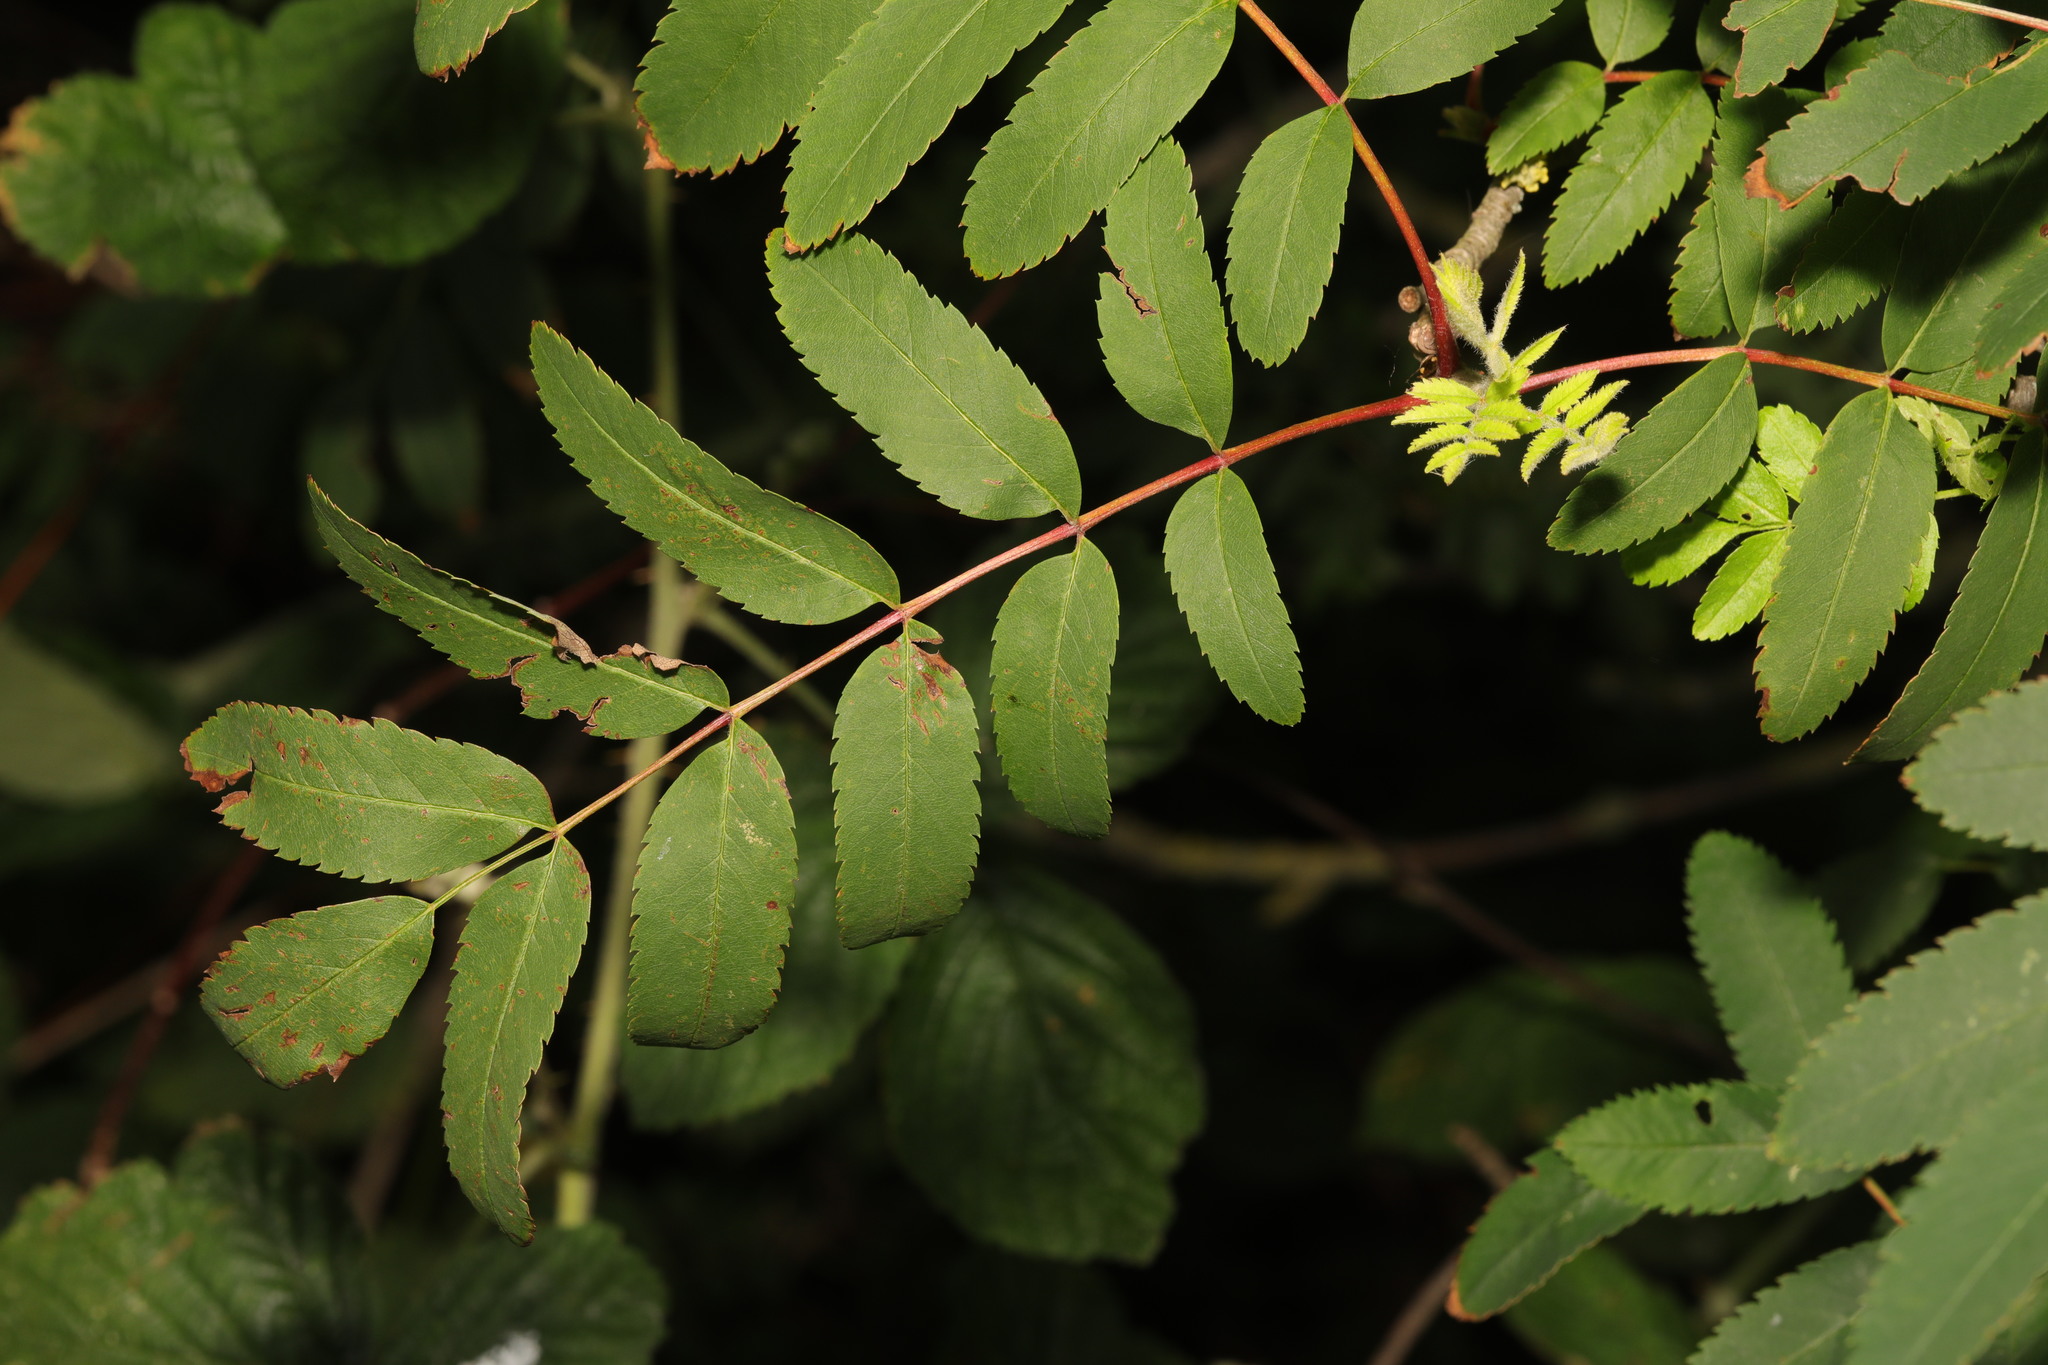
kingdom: Plantae
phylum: Tracheophyta
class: Magnoliopsida
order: Rosales
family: Rosaceae
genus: Sorbus
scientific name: Sorbus aucuparia
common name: Rowan
